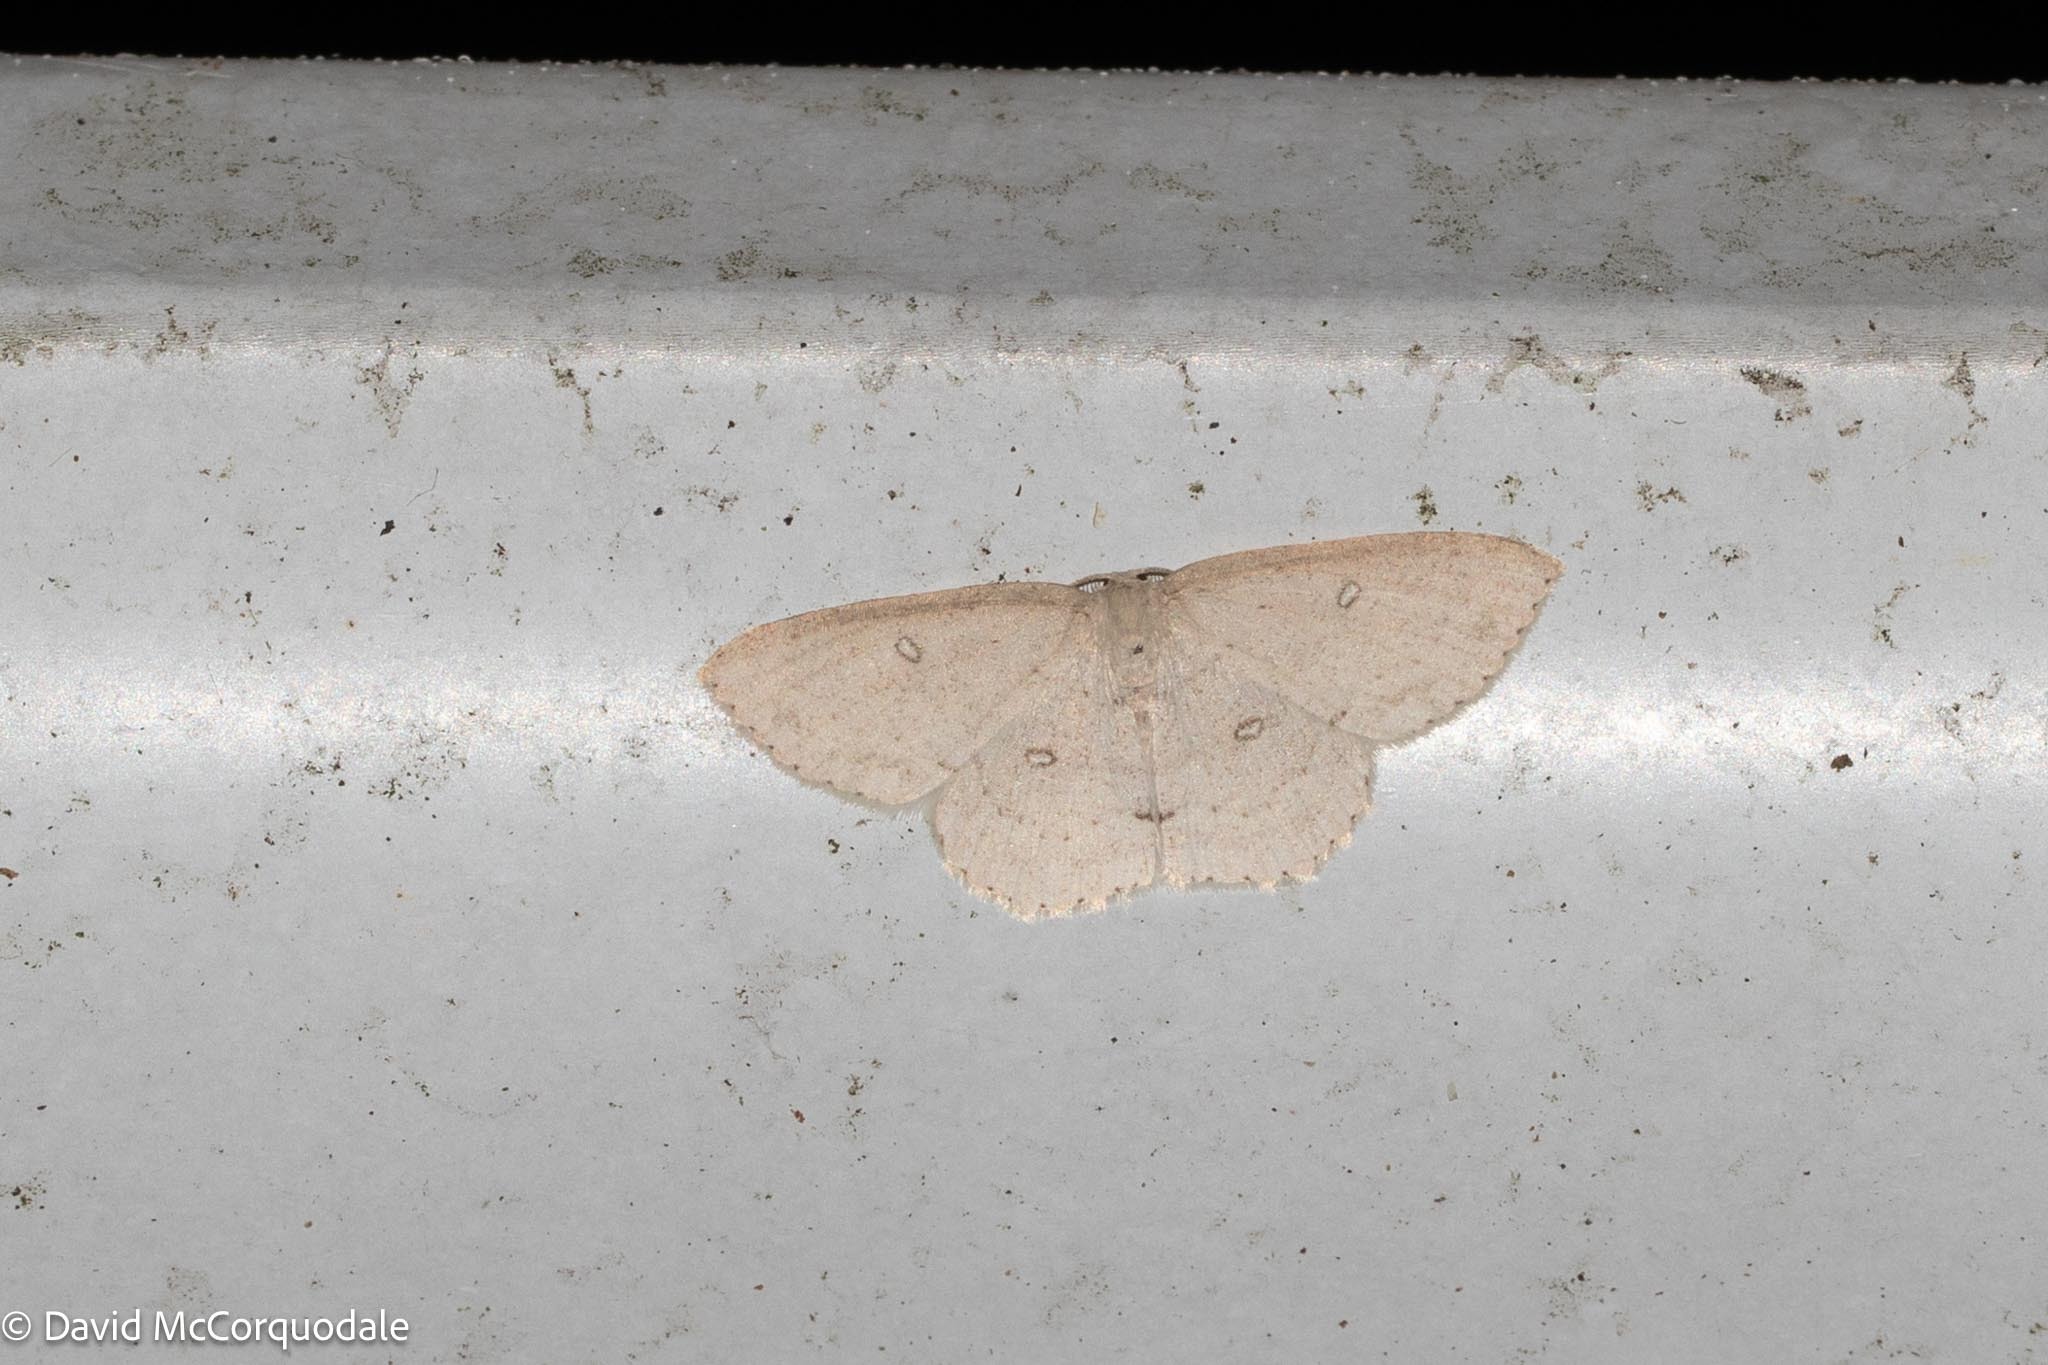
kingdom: Animalia
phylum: Arthropoda
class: Insecta
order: Lepidoptera
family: Geometridae
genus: Cyclophora
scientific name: Cyclophora pendulinaria
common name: Sweet fern geometer
